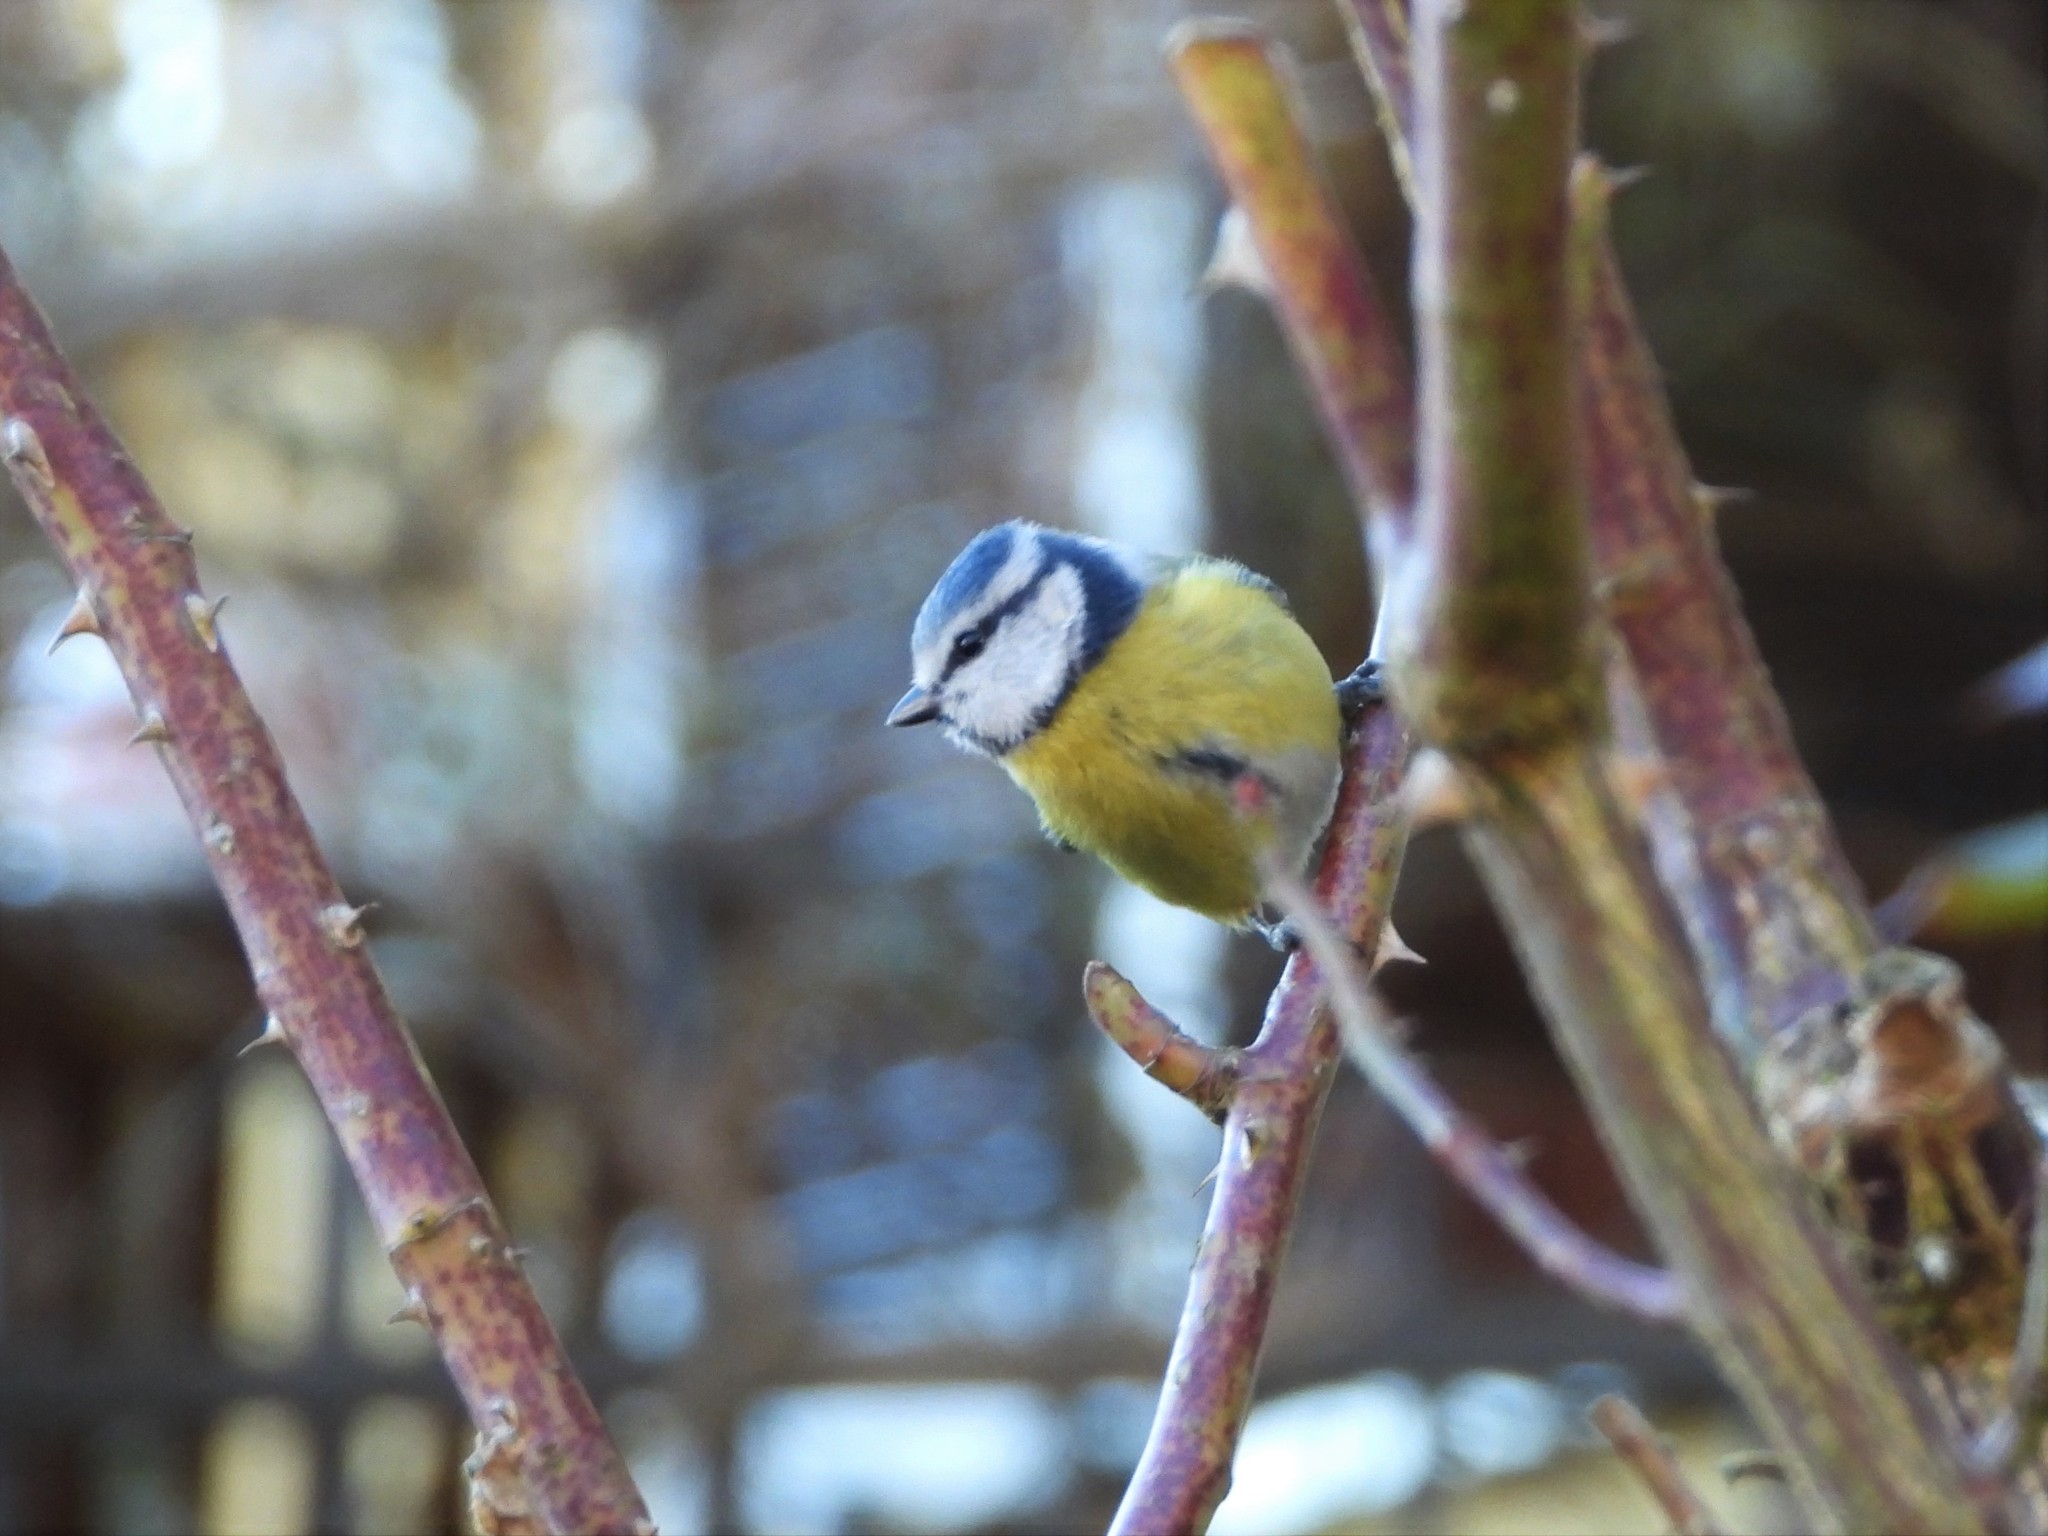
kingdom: Animalia
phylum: Chordata
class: Aves
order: Passeriformes
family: Paridae
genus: Cyanistes
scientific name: Cyanistes caeruleus
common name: Eurasian blue tit
